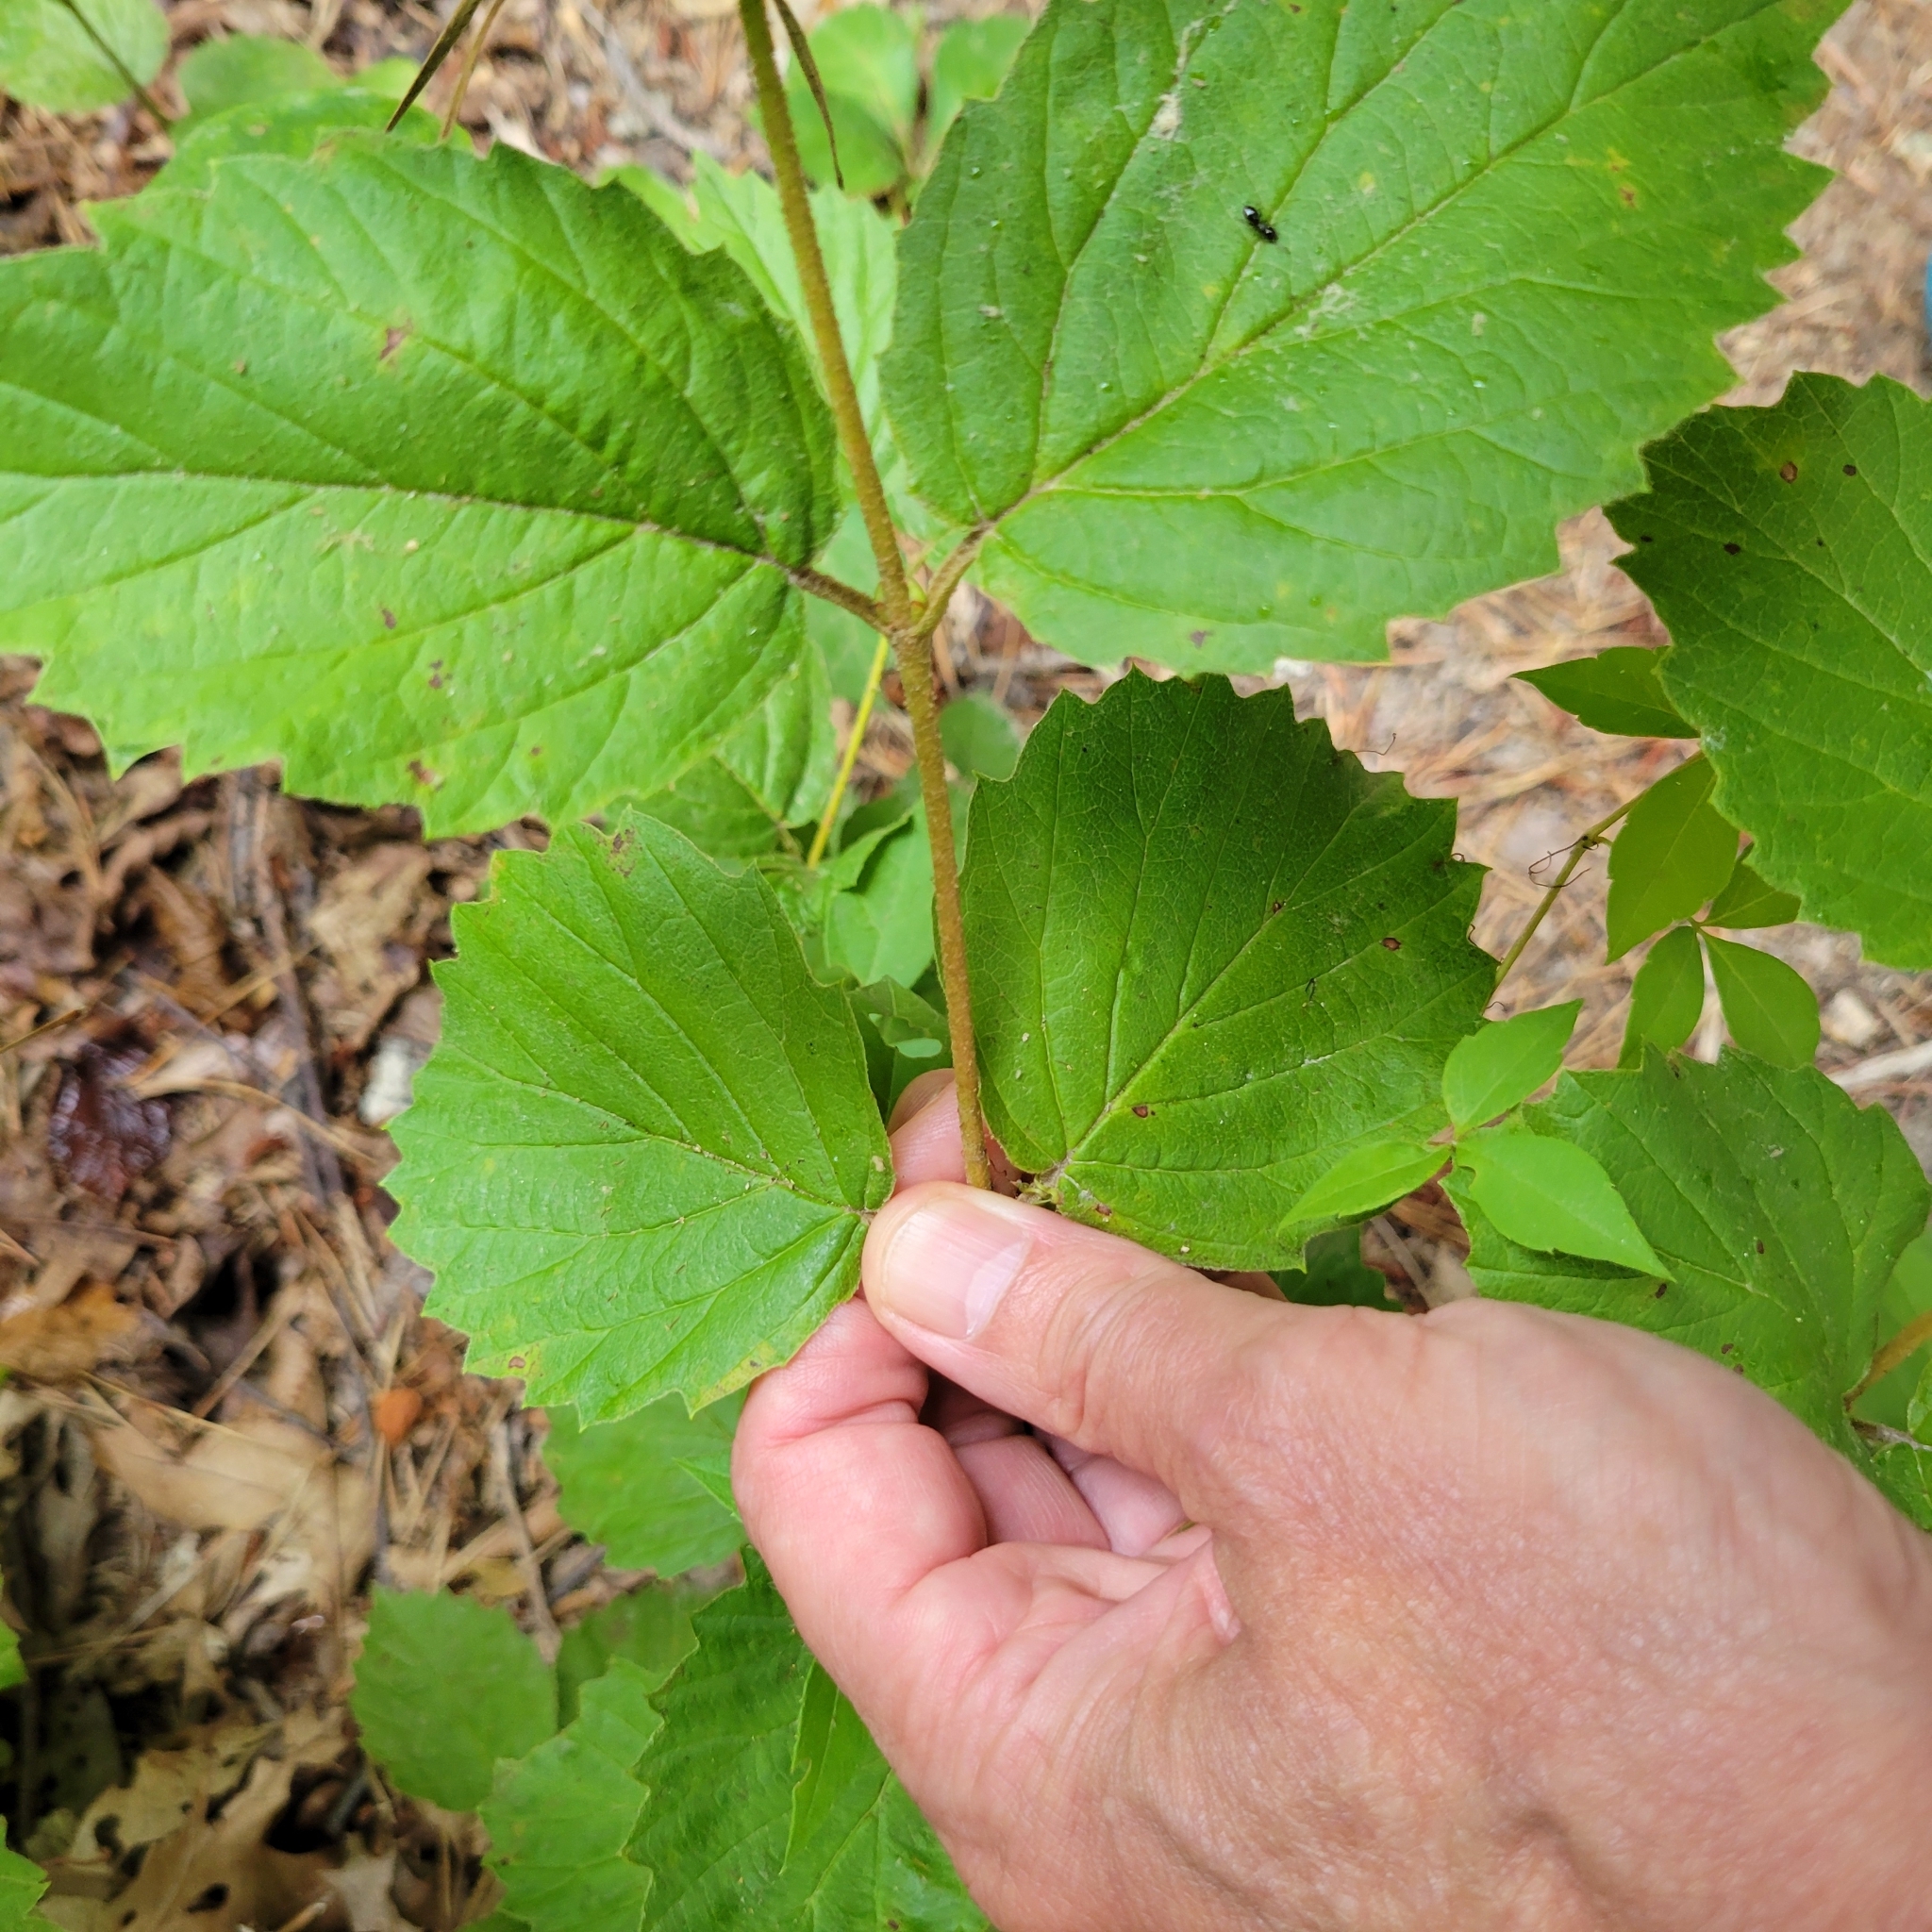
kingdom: Plantae
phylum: Tracheophyta
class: Magnoliopsida
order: Dipsacales
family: Viburnaceae
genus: Viburnum
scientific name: Viburnum dentatum
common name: Arrow-wood
